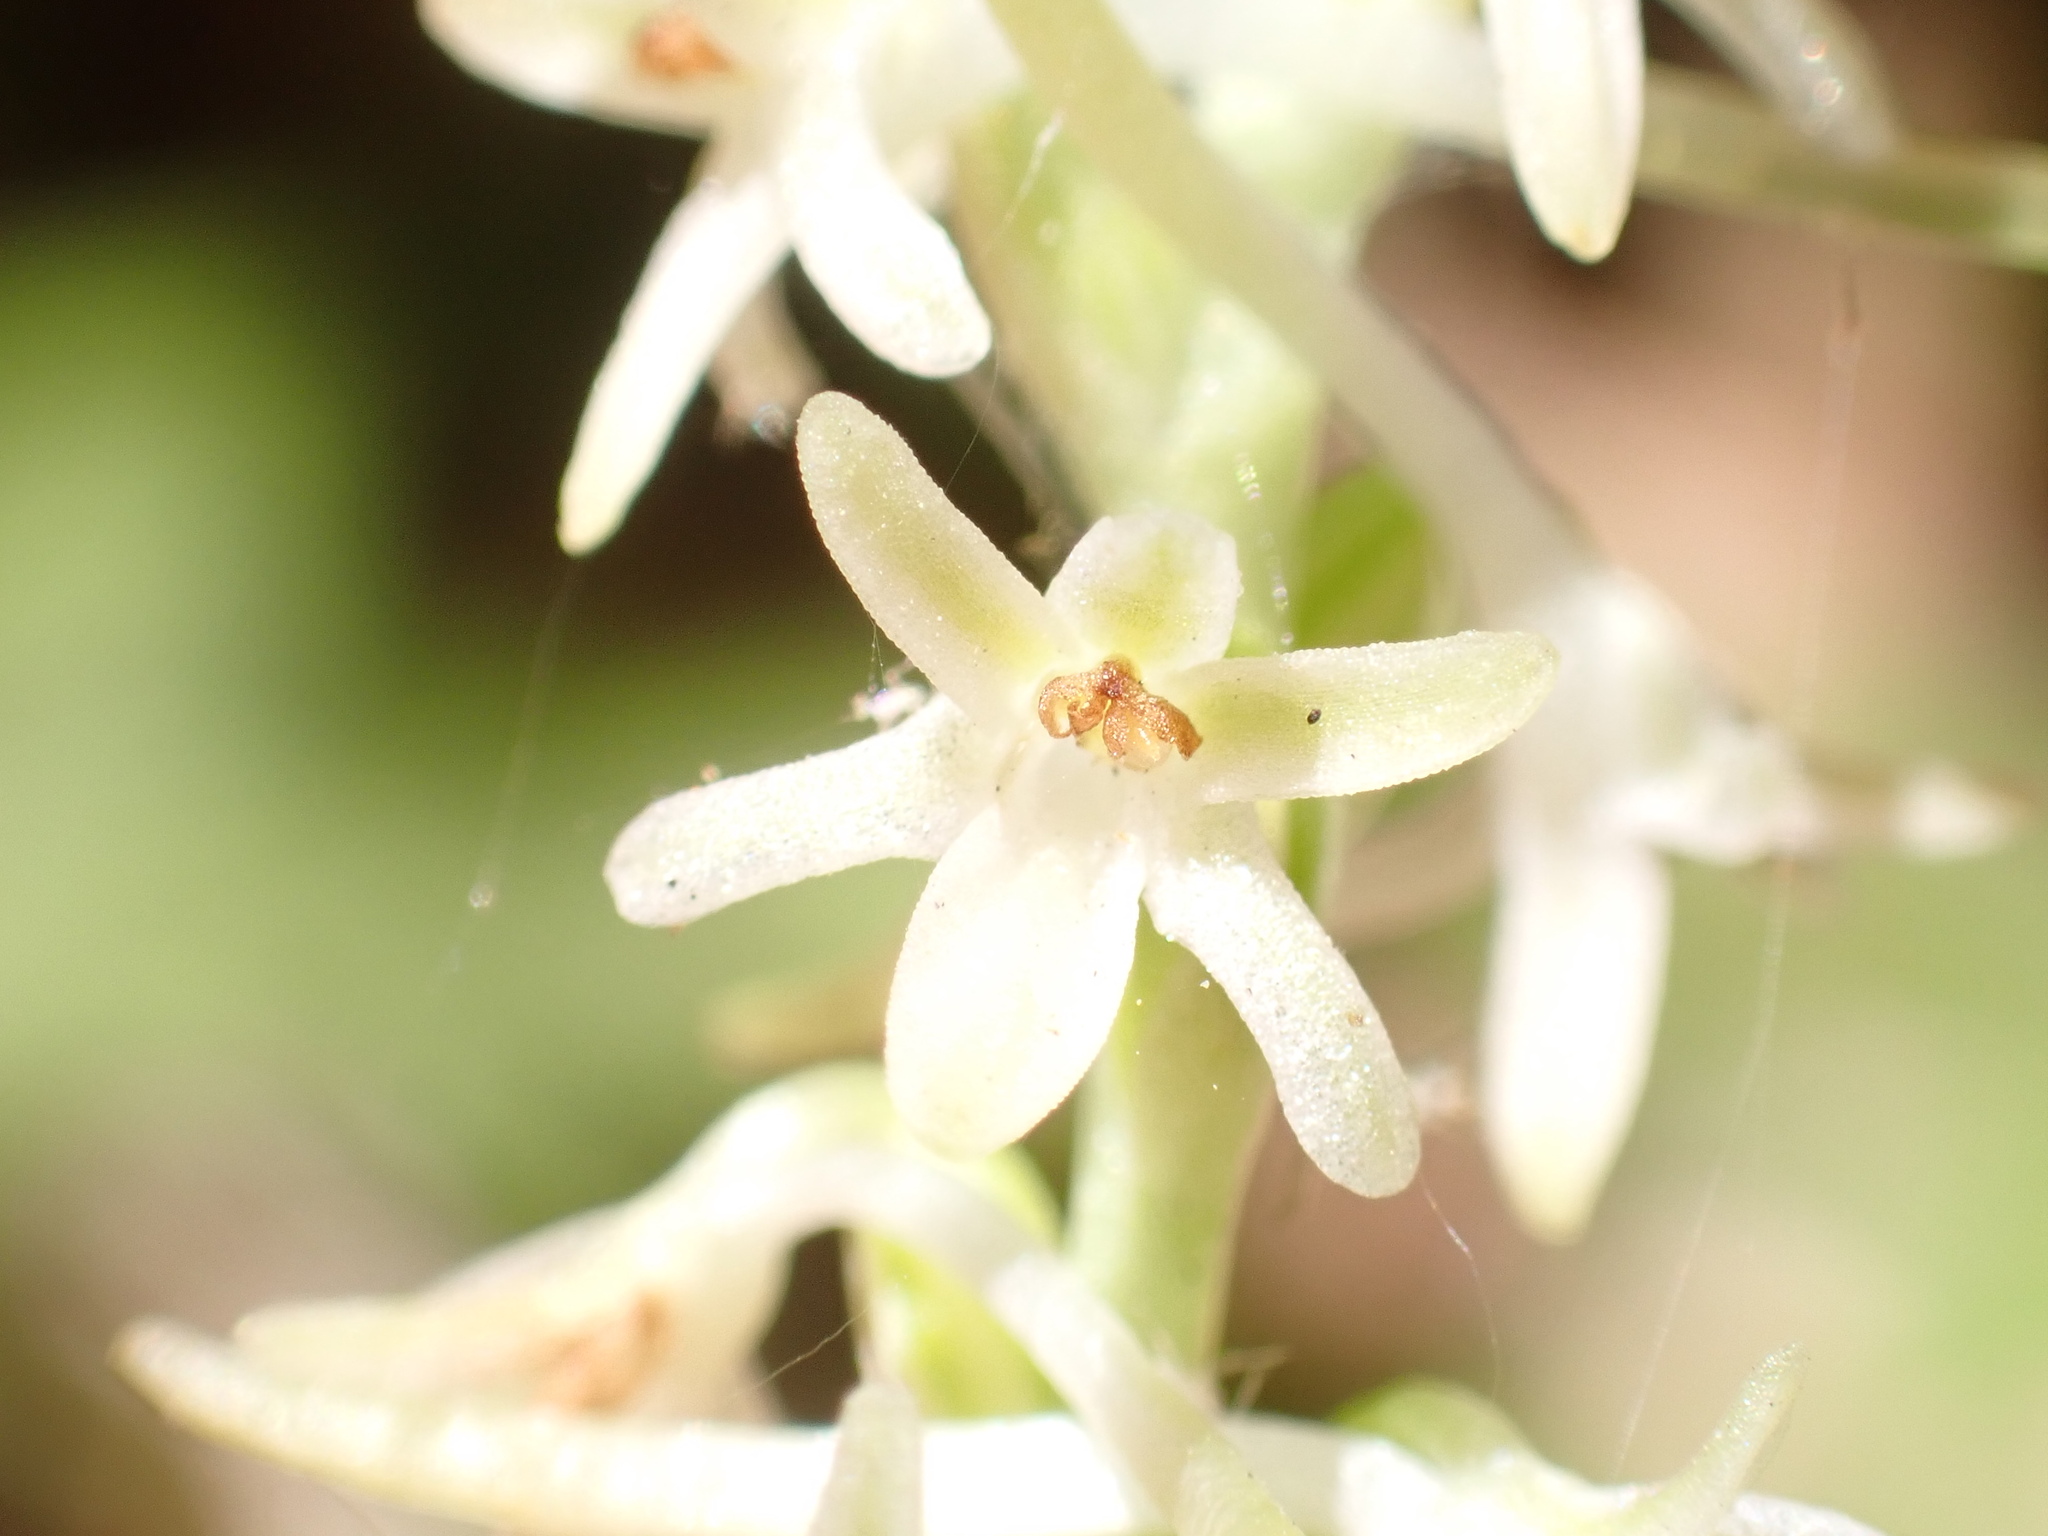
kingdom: Plantae
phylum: Tracheophyta
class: Liliopsida
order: Asparagales
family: Orchidaceae
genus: Platanthera
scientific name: Platanthera transversa
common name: Royal rein orchid
